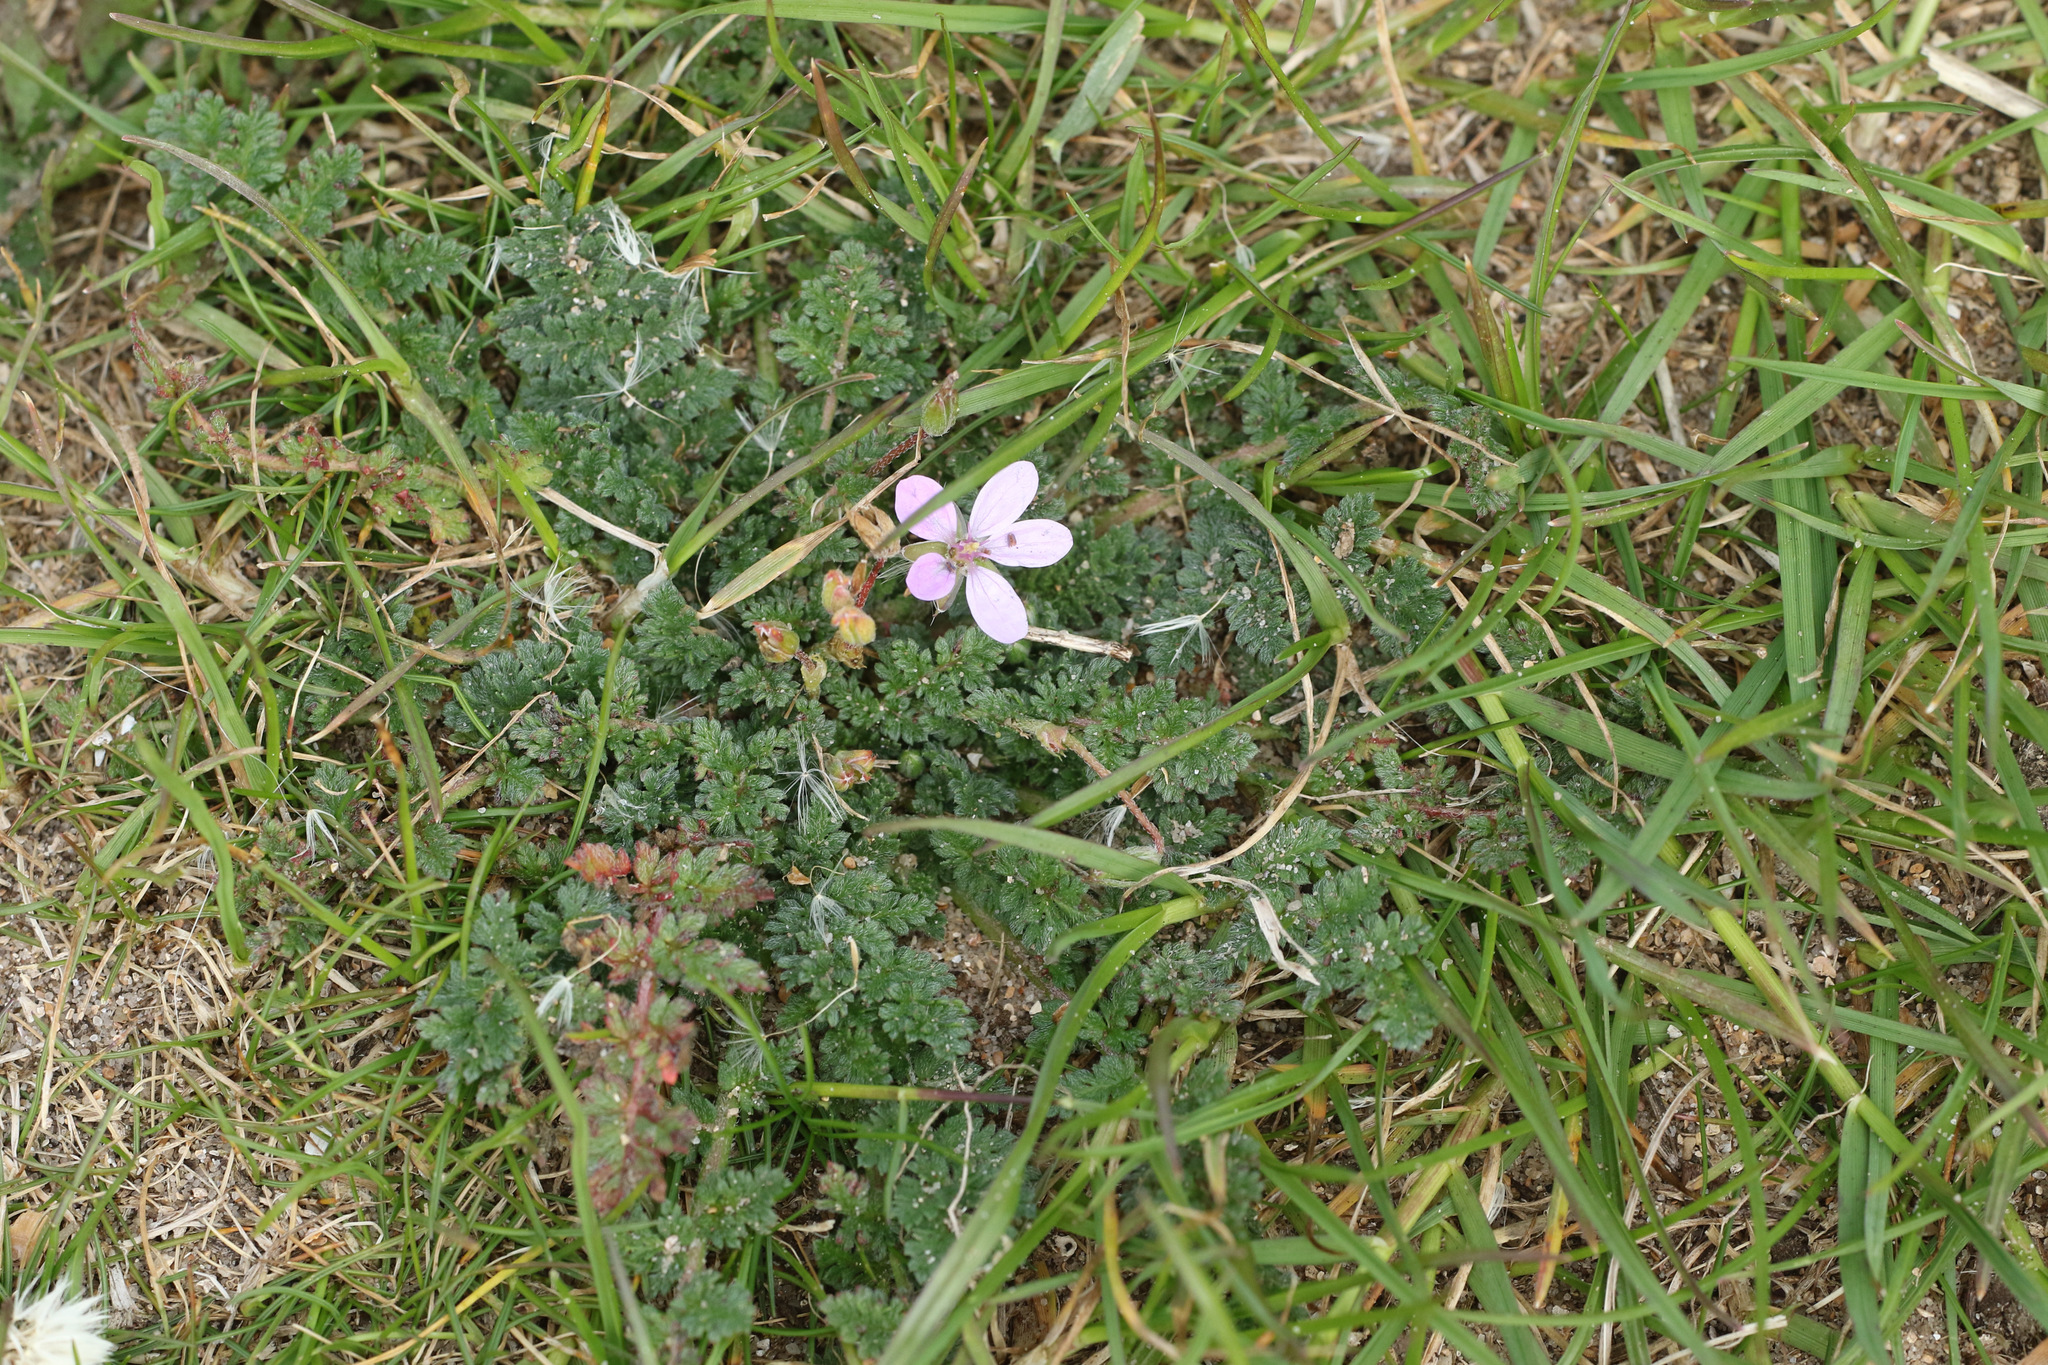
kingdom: Plantae
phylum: Tracheophyta
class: Magnoliopsida
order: Geraniales
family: Geraniaceae
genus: Erodium
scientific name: Erodium cicutarium
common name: Common stork's-bill
